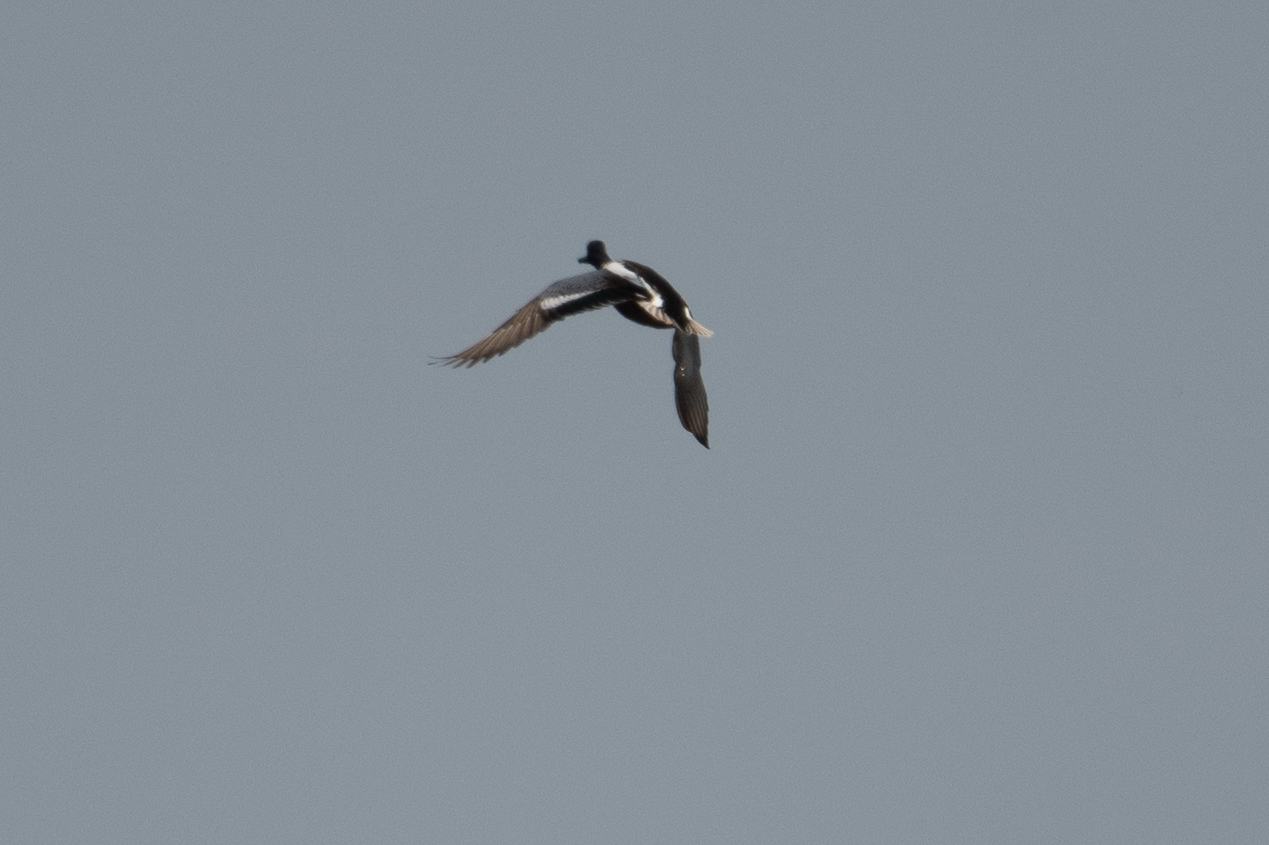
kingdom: Animalia
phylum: Chordata
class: Aves
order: Anseriformes
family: Anatidae
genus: Spatula
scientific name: Spatula clypeata
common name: Northern shoveler
